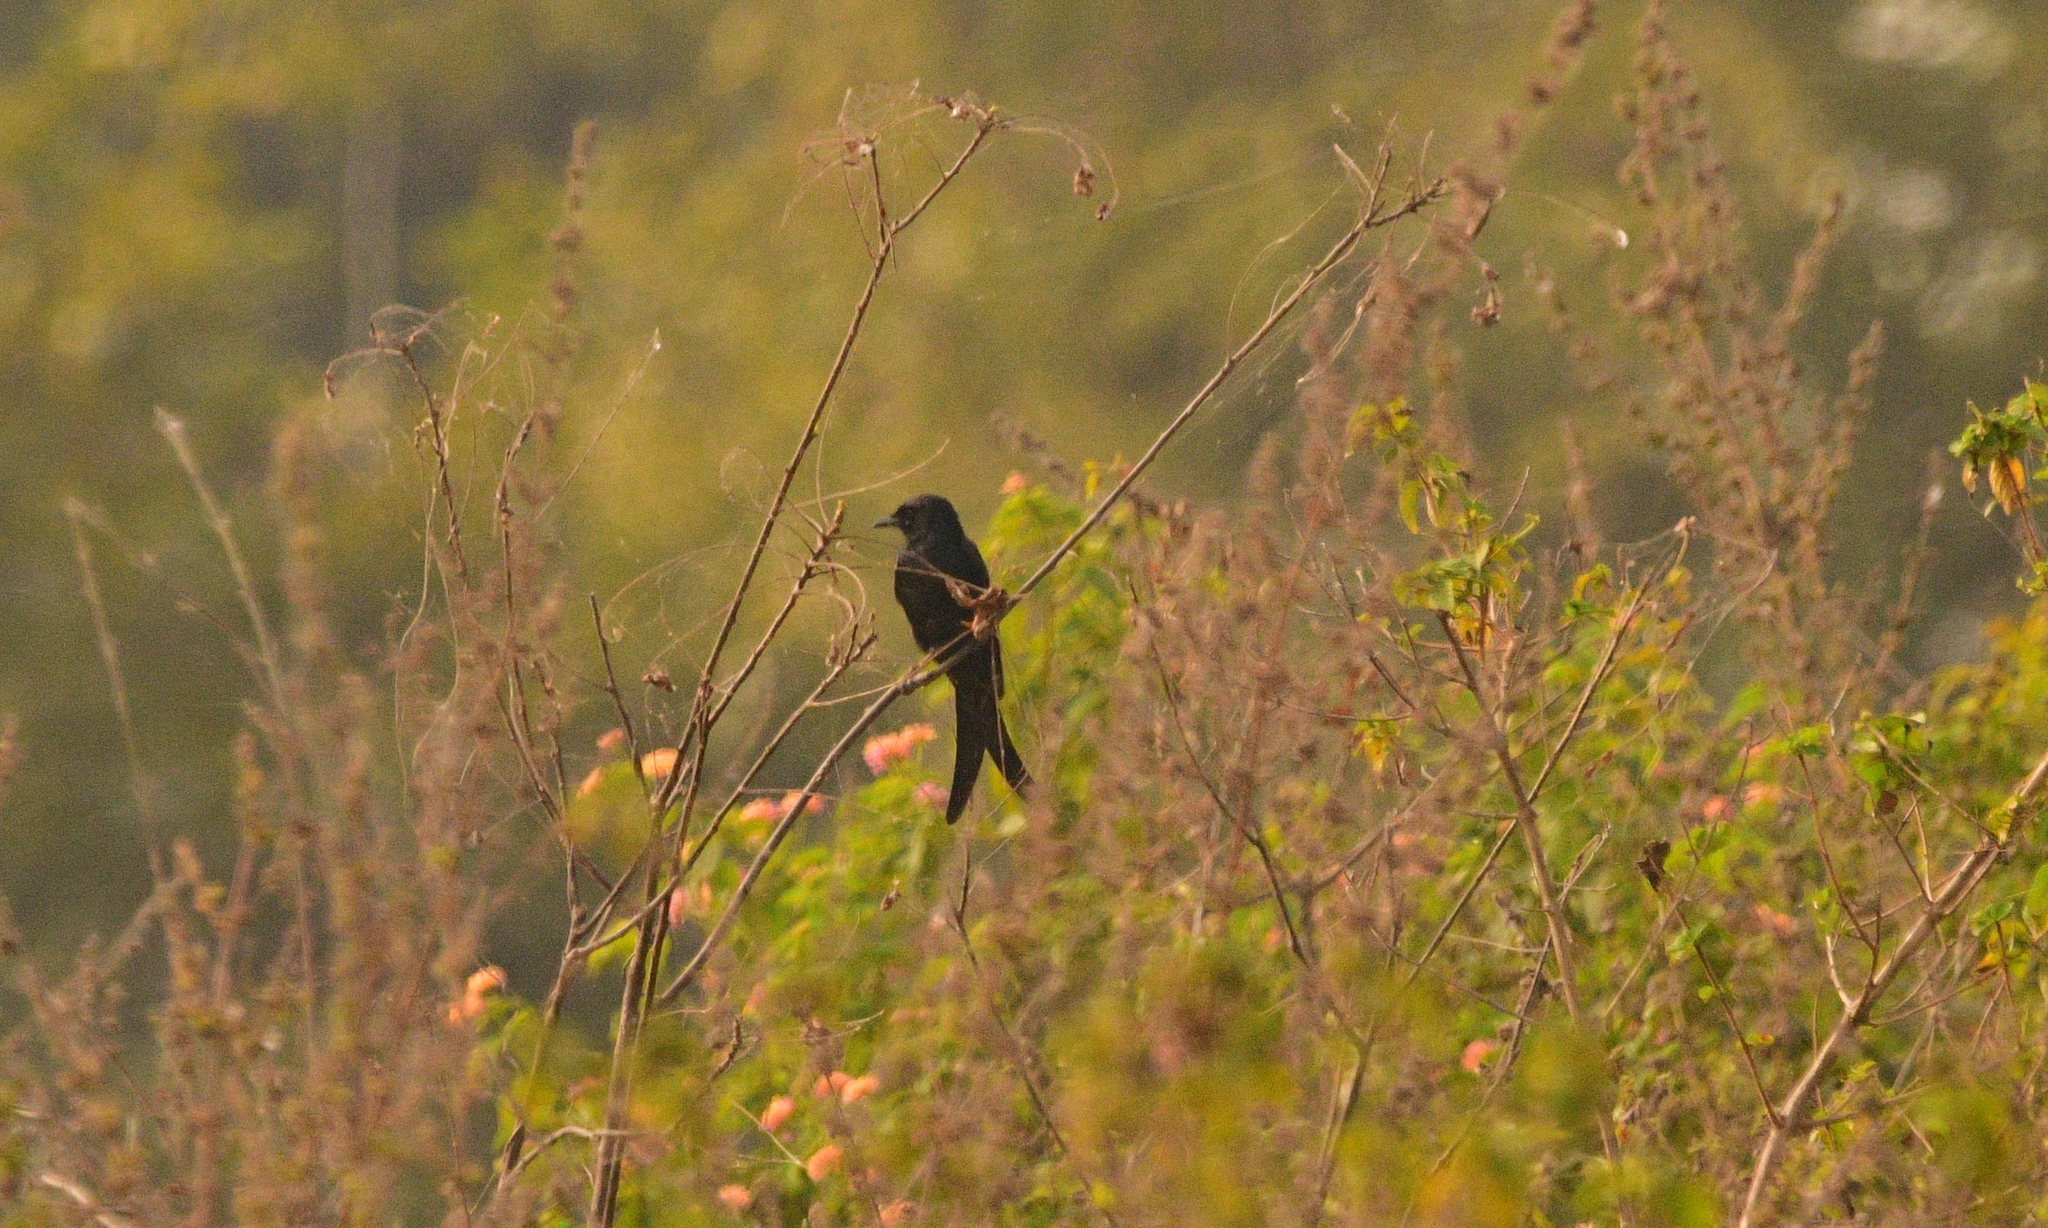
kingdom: Animalia
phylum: Chordata
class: Aves
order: Passeriformes
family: Dicruridae
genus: Dicrurus
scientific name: Dicrurus macrocercus
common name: Black drongo
